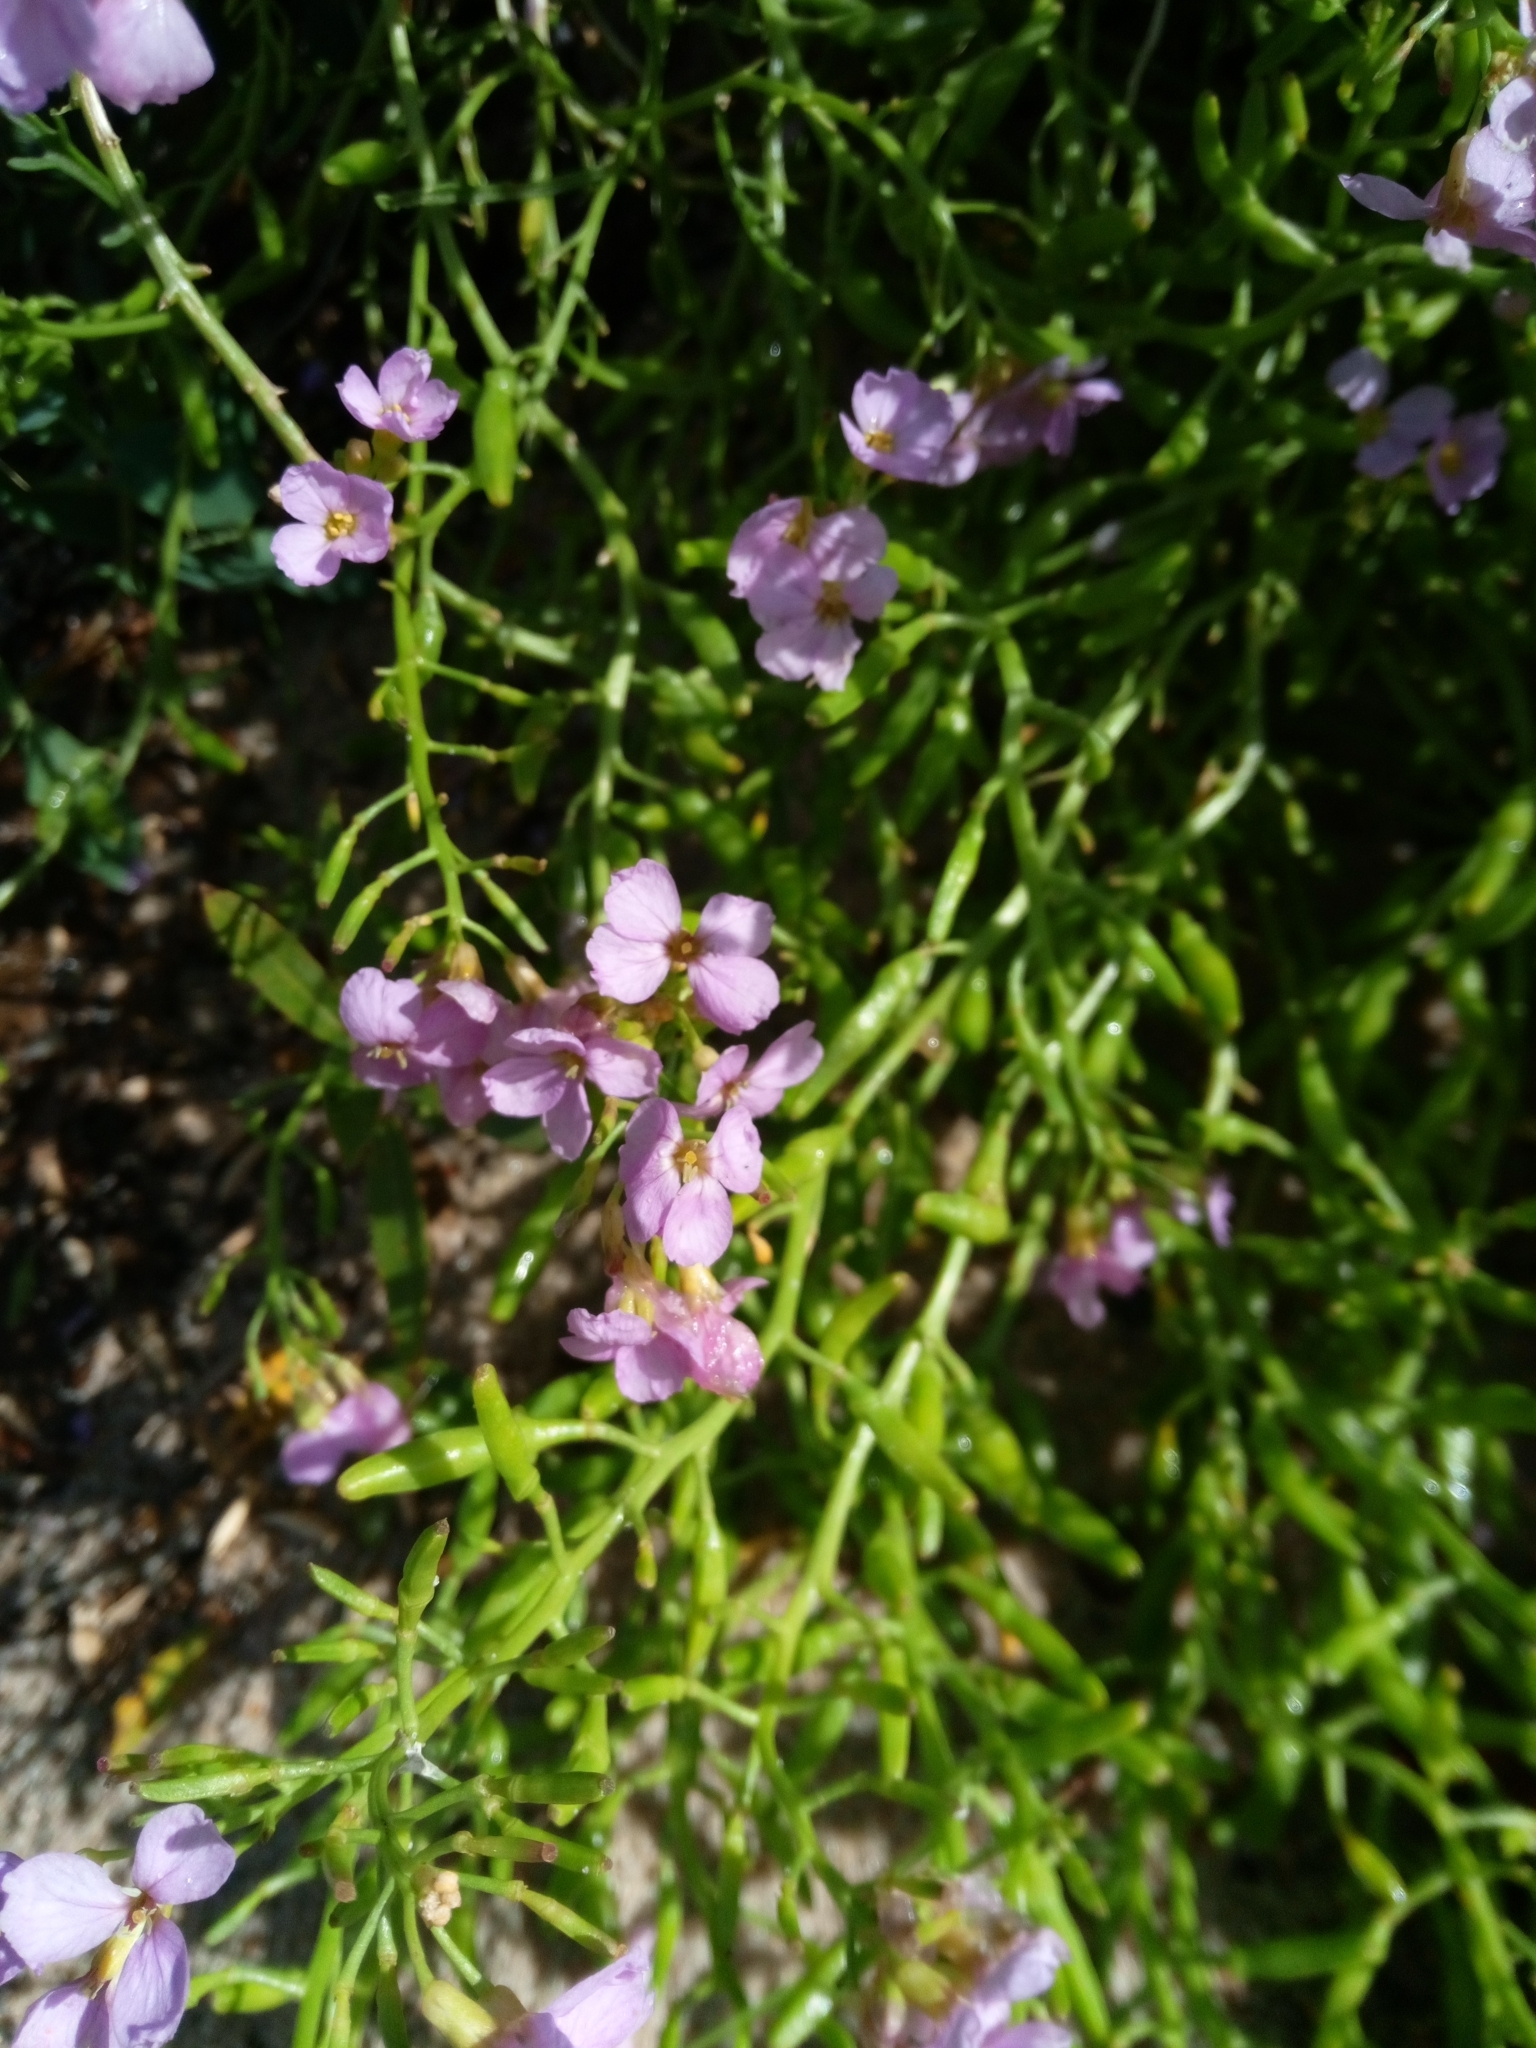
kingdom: Plantae
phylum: Tracheophyta
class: Magnoliopsida
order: Brassicales
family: Brassicaceae
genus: Cakile
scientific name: Cakile maritima
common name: Sea rocket
